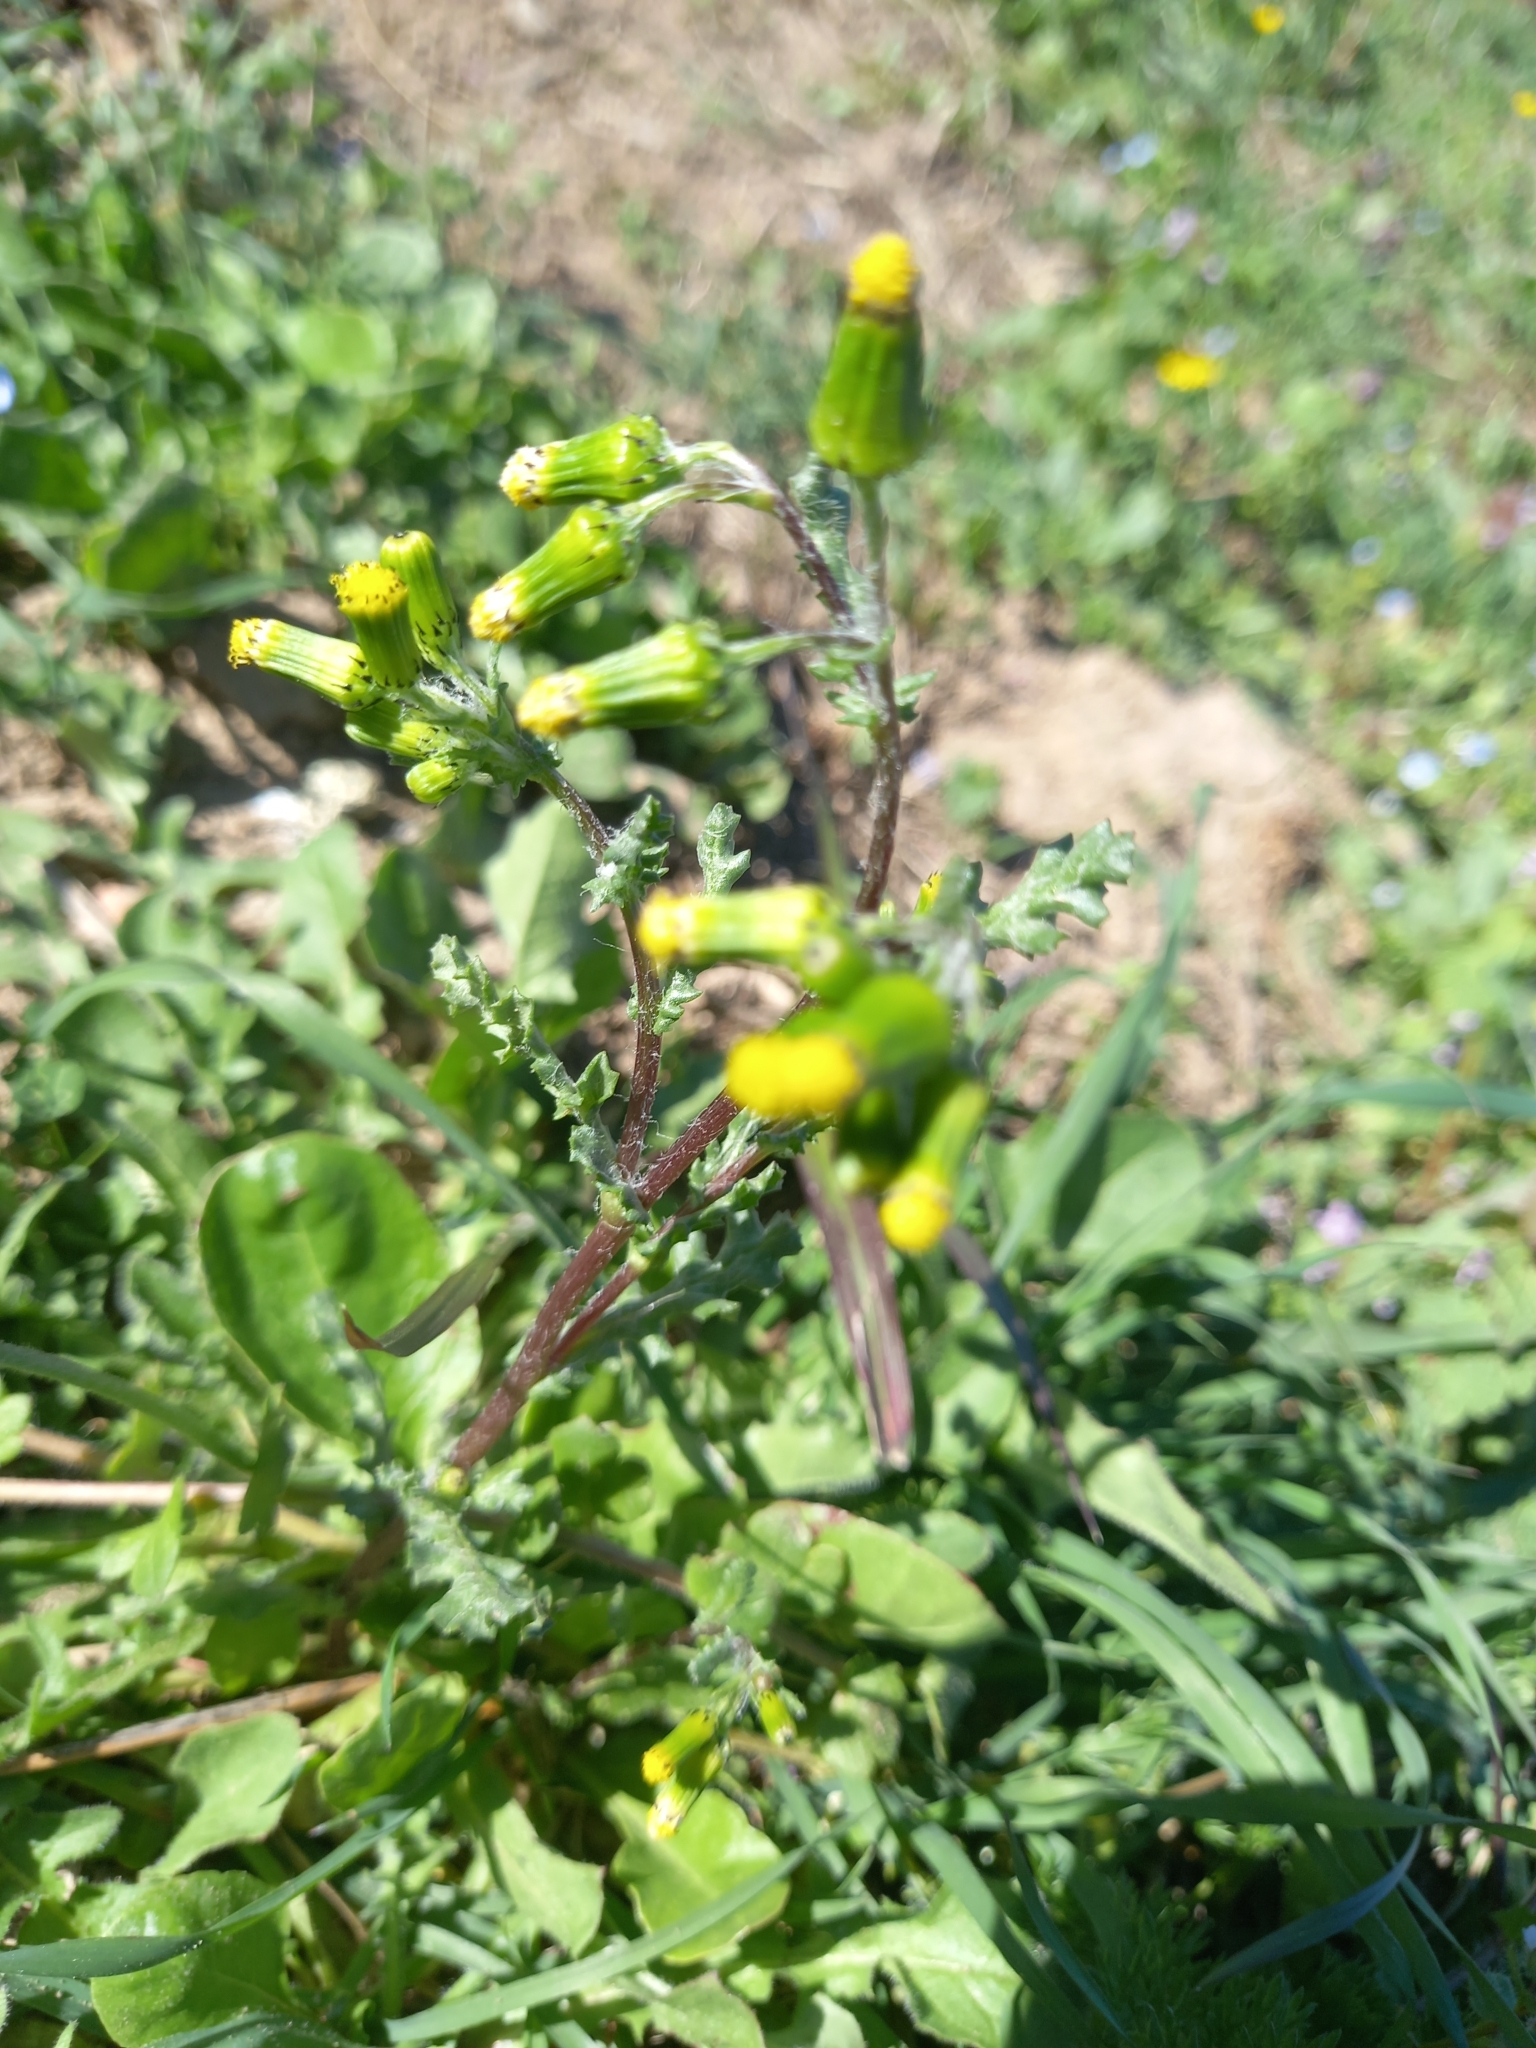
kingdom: Plantae
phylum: Tracheophyta
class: Magnoliopsida
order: Asterales
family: Asteraceae
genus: Senecio
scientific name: Senecio vulgaris
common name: Old-man-in-the-spring
